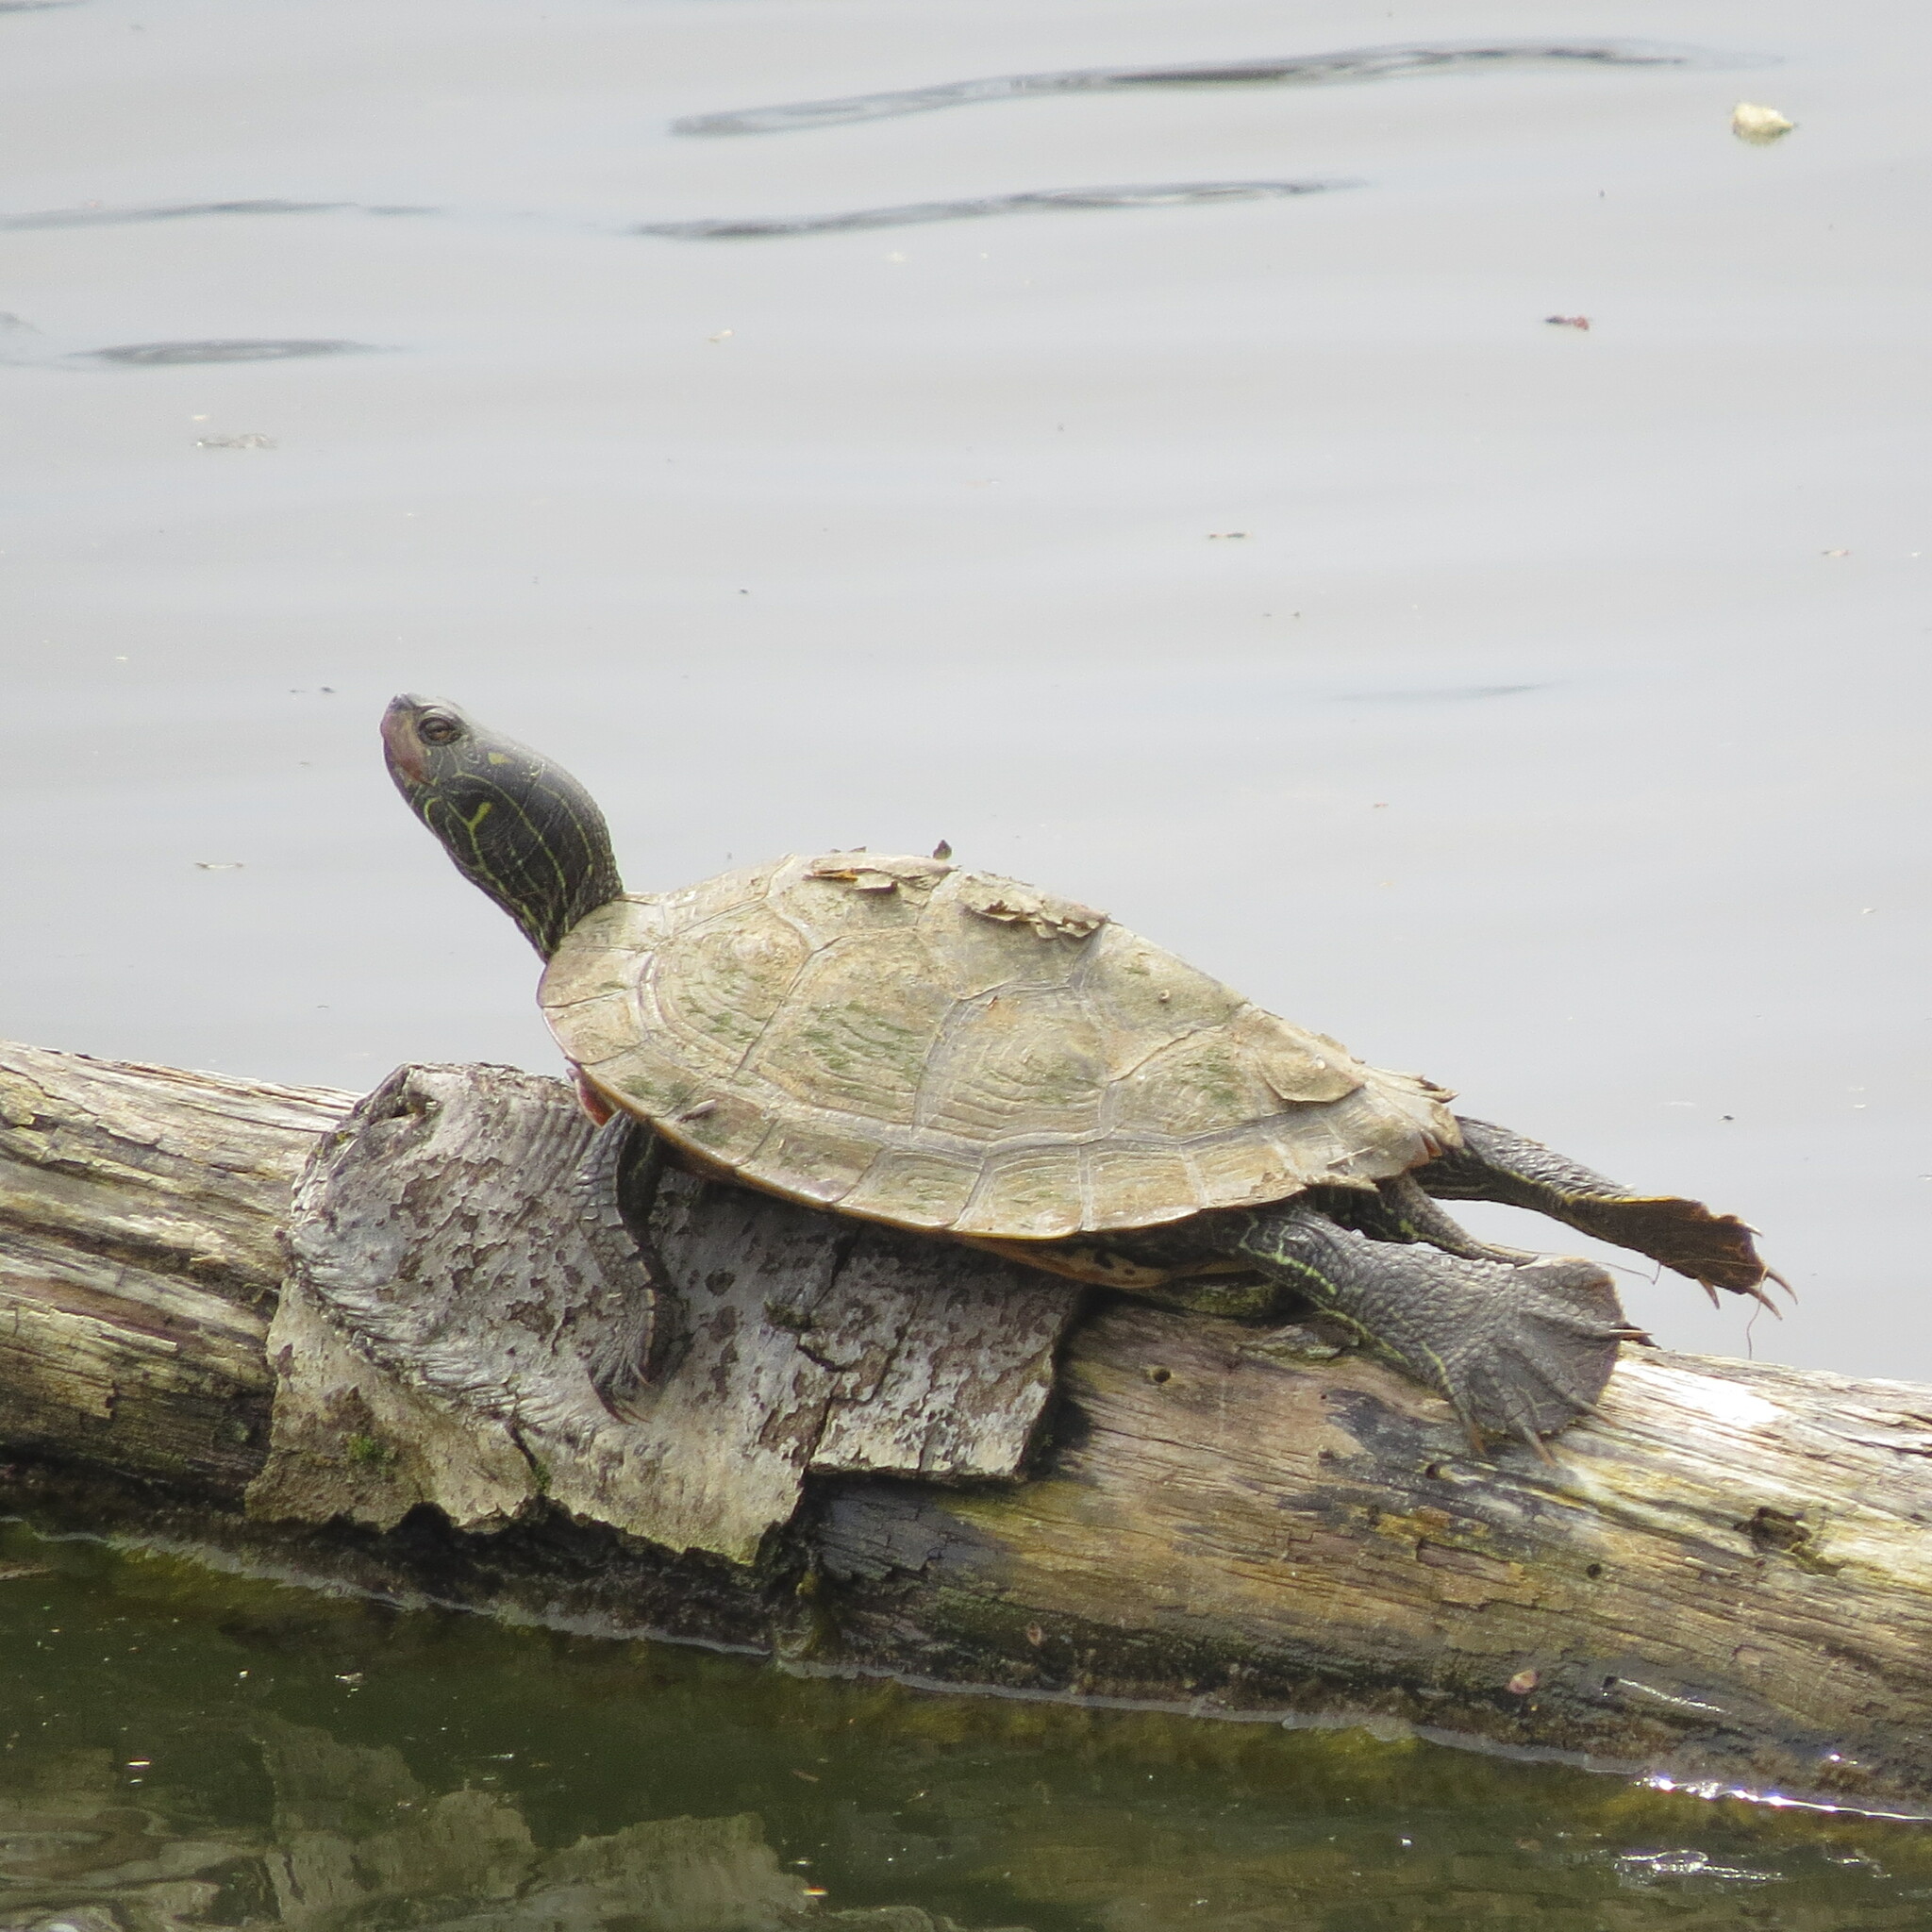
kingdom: Animalia
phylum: Chordata
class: Testudines
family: Emydidae
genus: Graptemys
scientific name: Graptemys geographica
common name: Common map turtle
